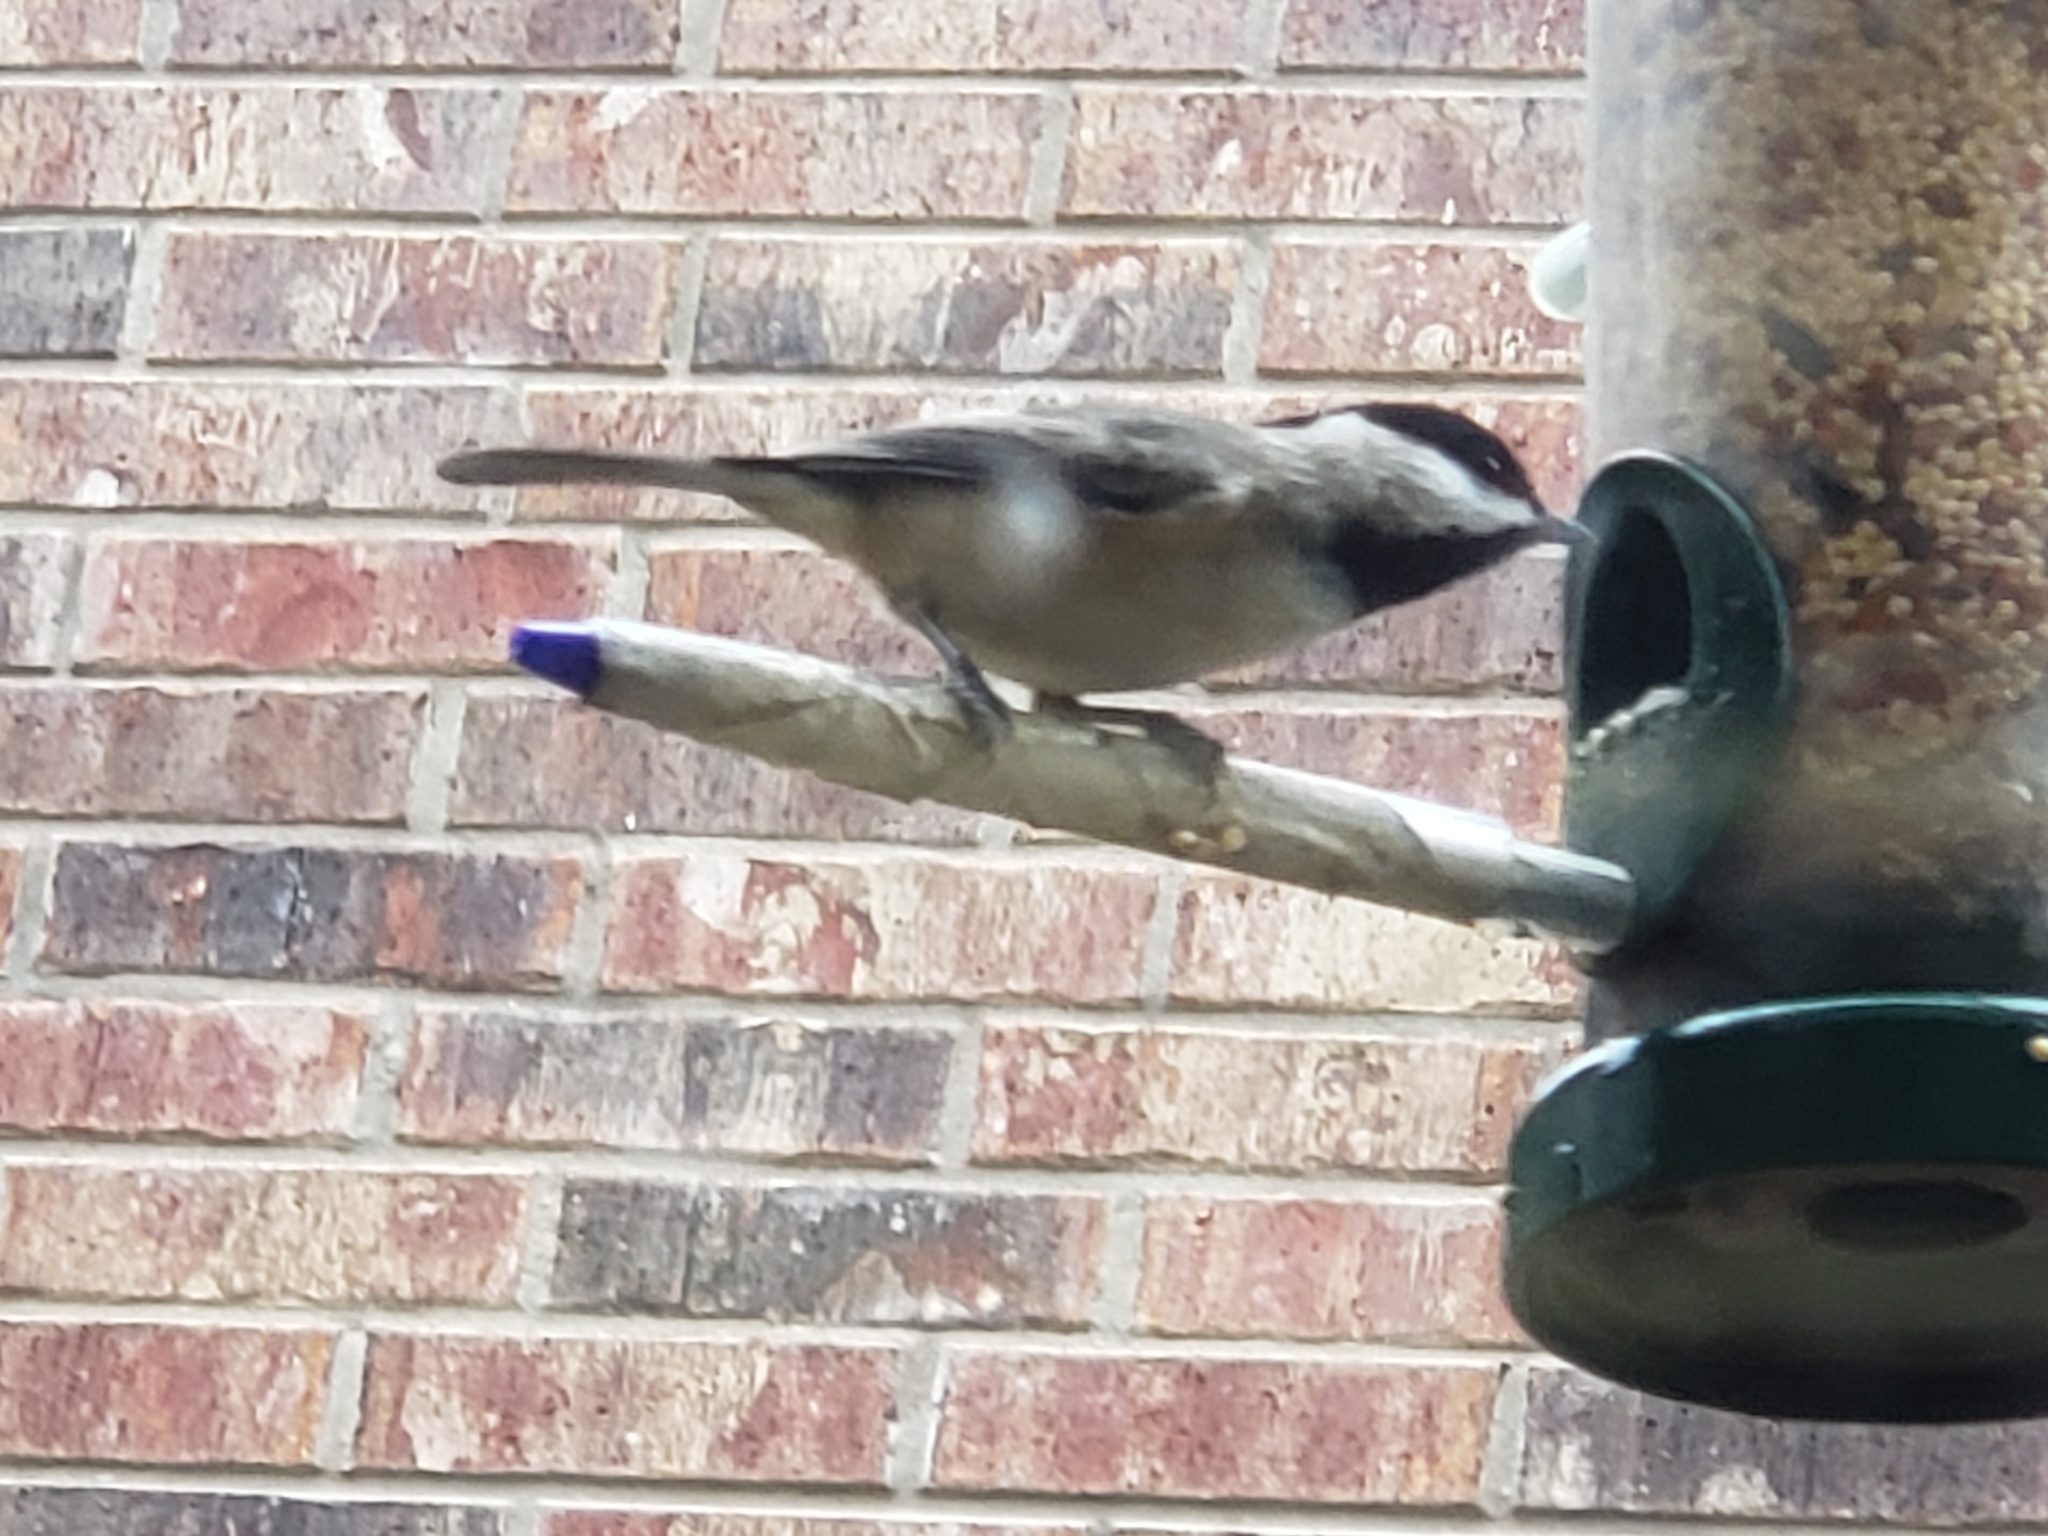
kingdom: Animalia
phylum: Chordata
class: Aves
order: Passeriformes
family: Paridae
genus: Poecile
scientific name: Poecile carolinensis
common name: Carolina chickadee
